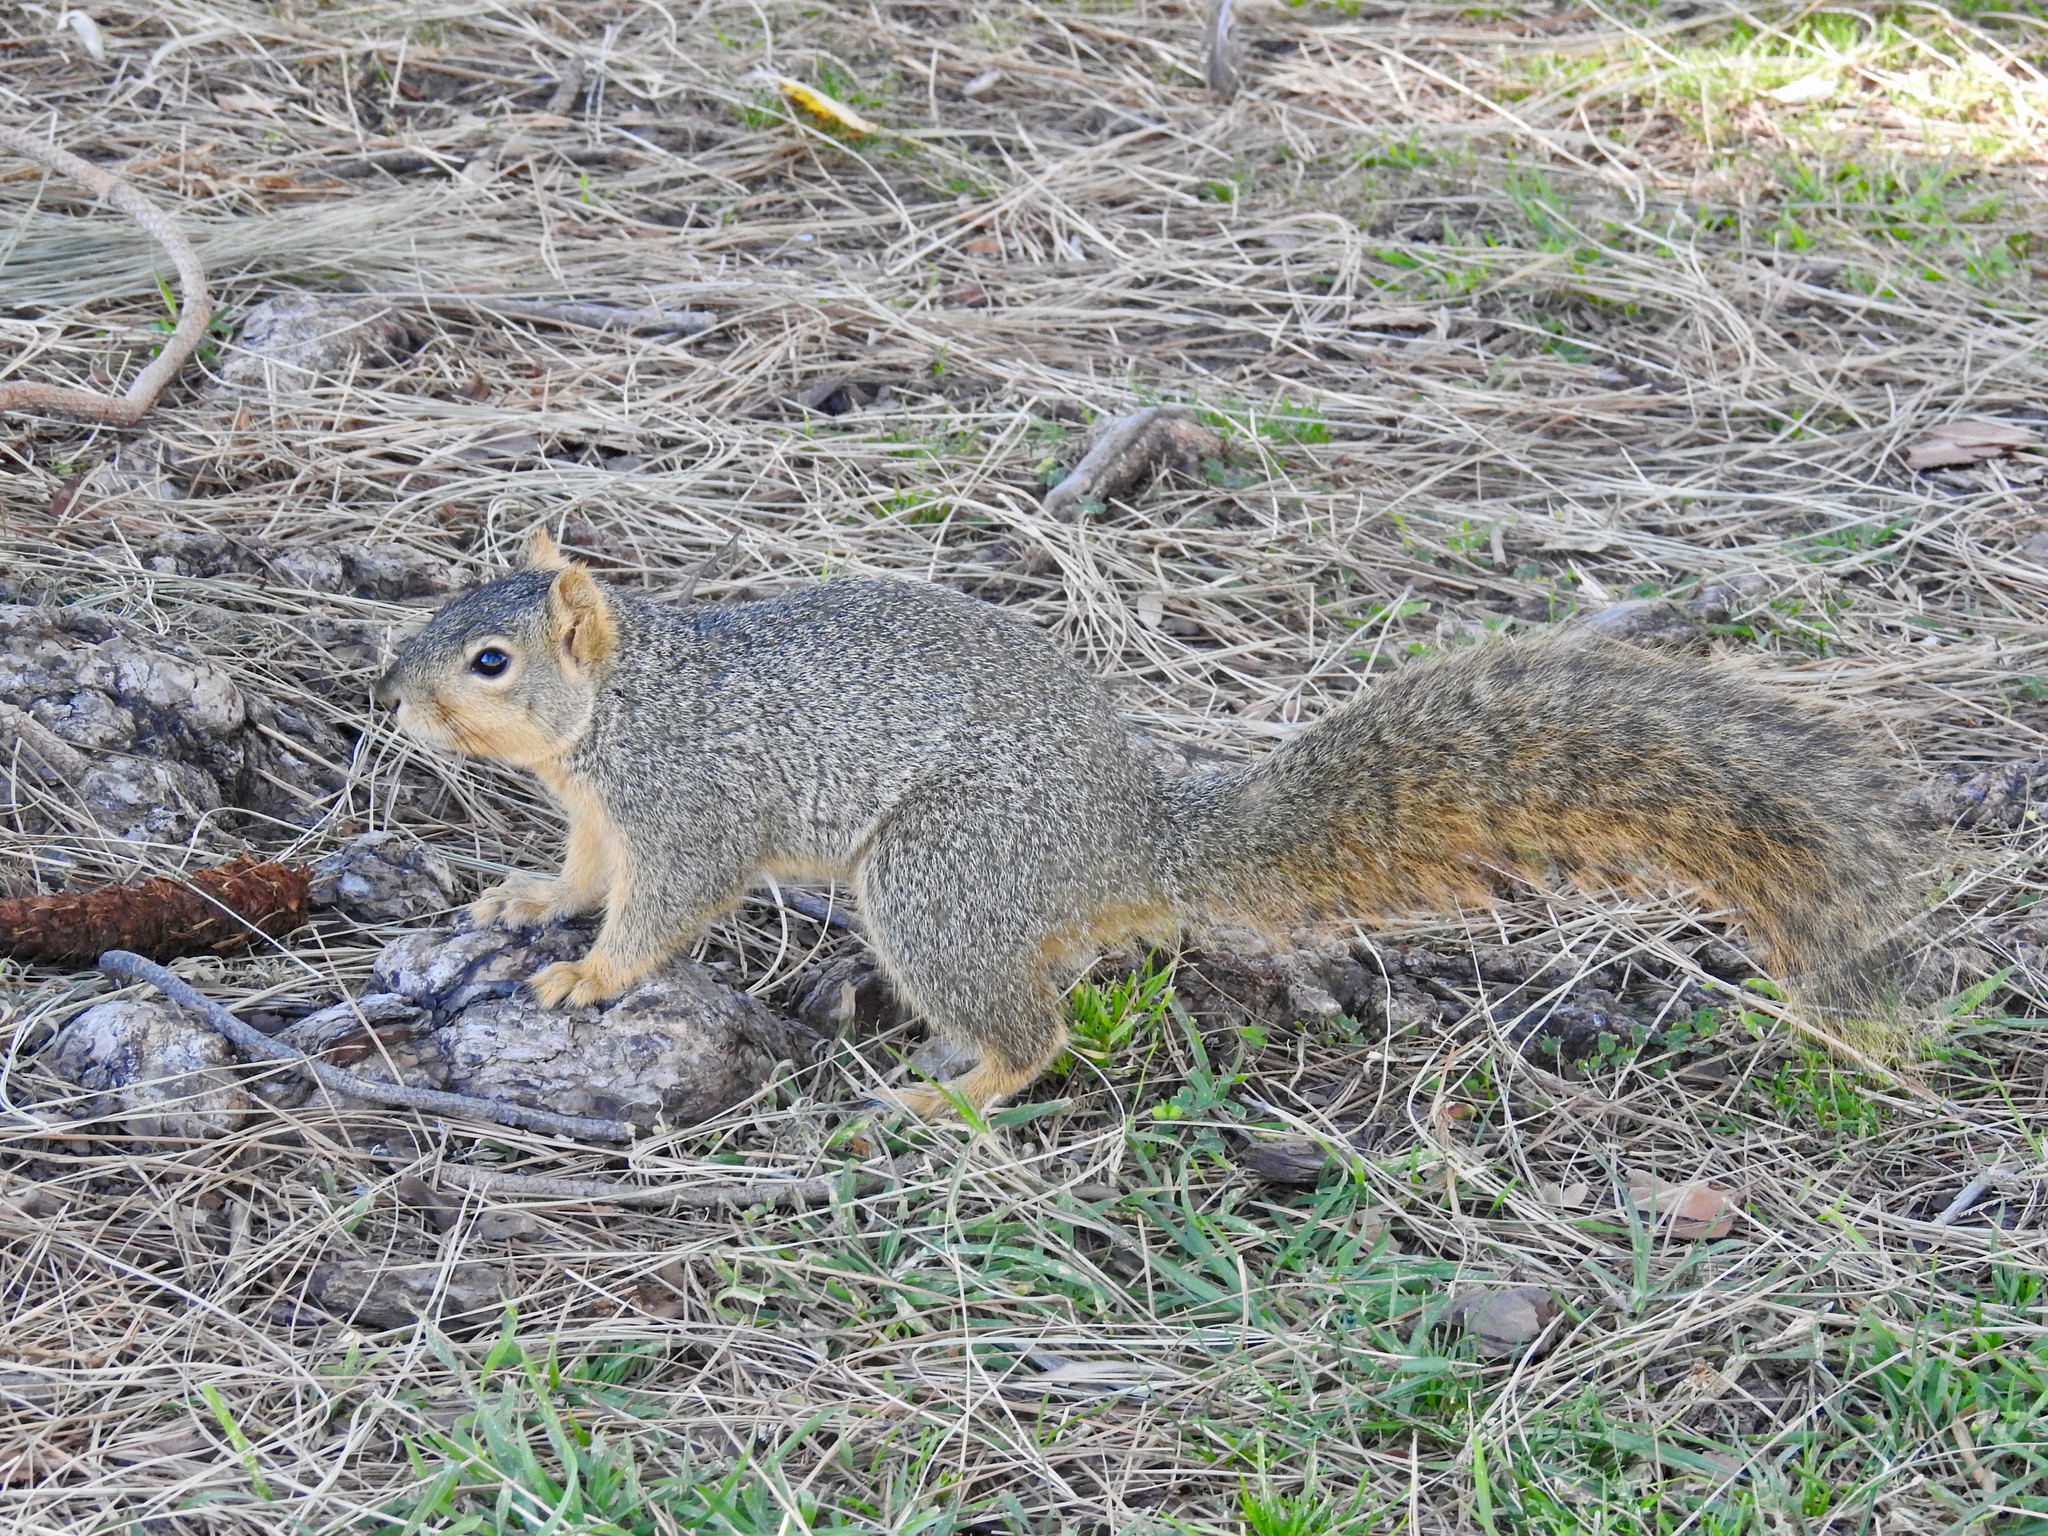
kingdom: Animalia
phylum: Chordata
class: Mammalia
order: Rodentia
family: Sciuridae
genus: Sciurus
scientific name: Sciurus niger
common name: Fox squirrel
